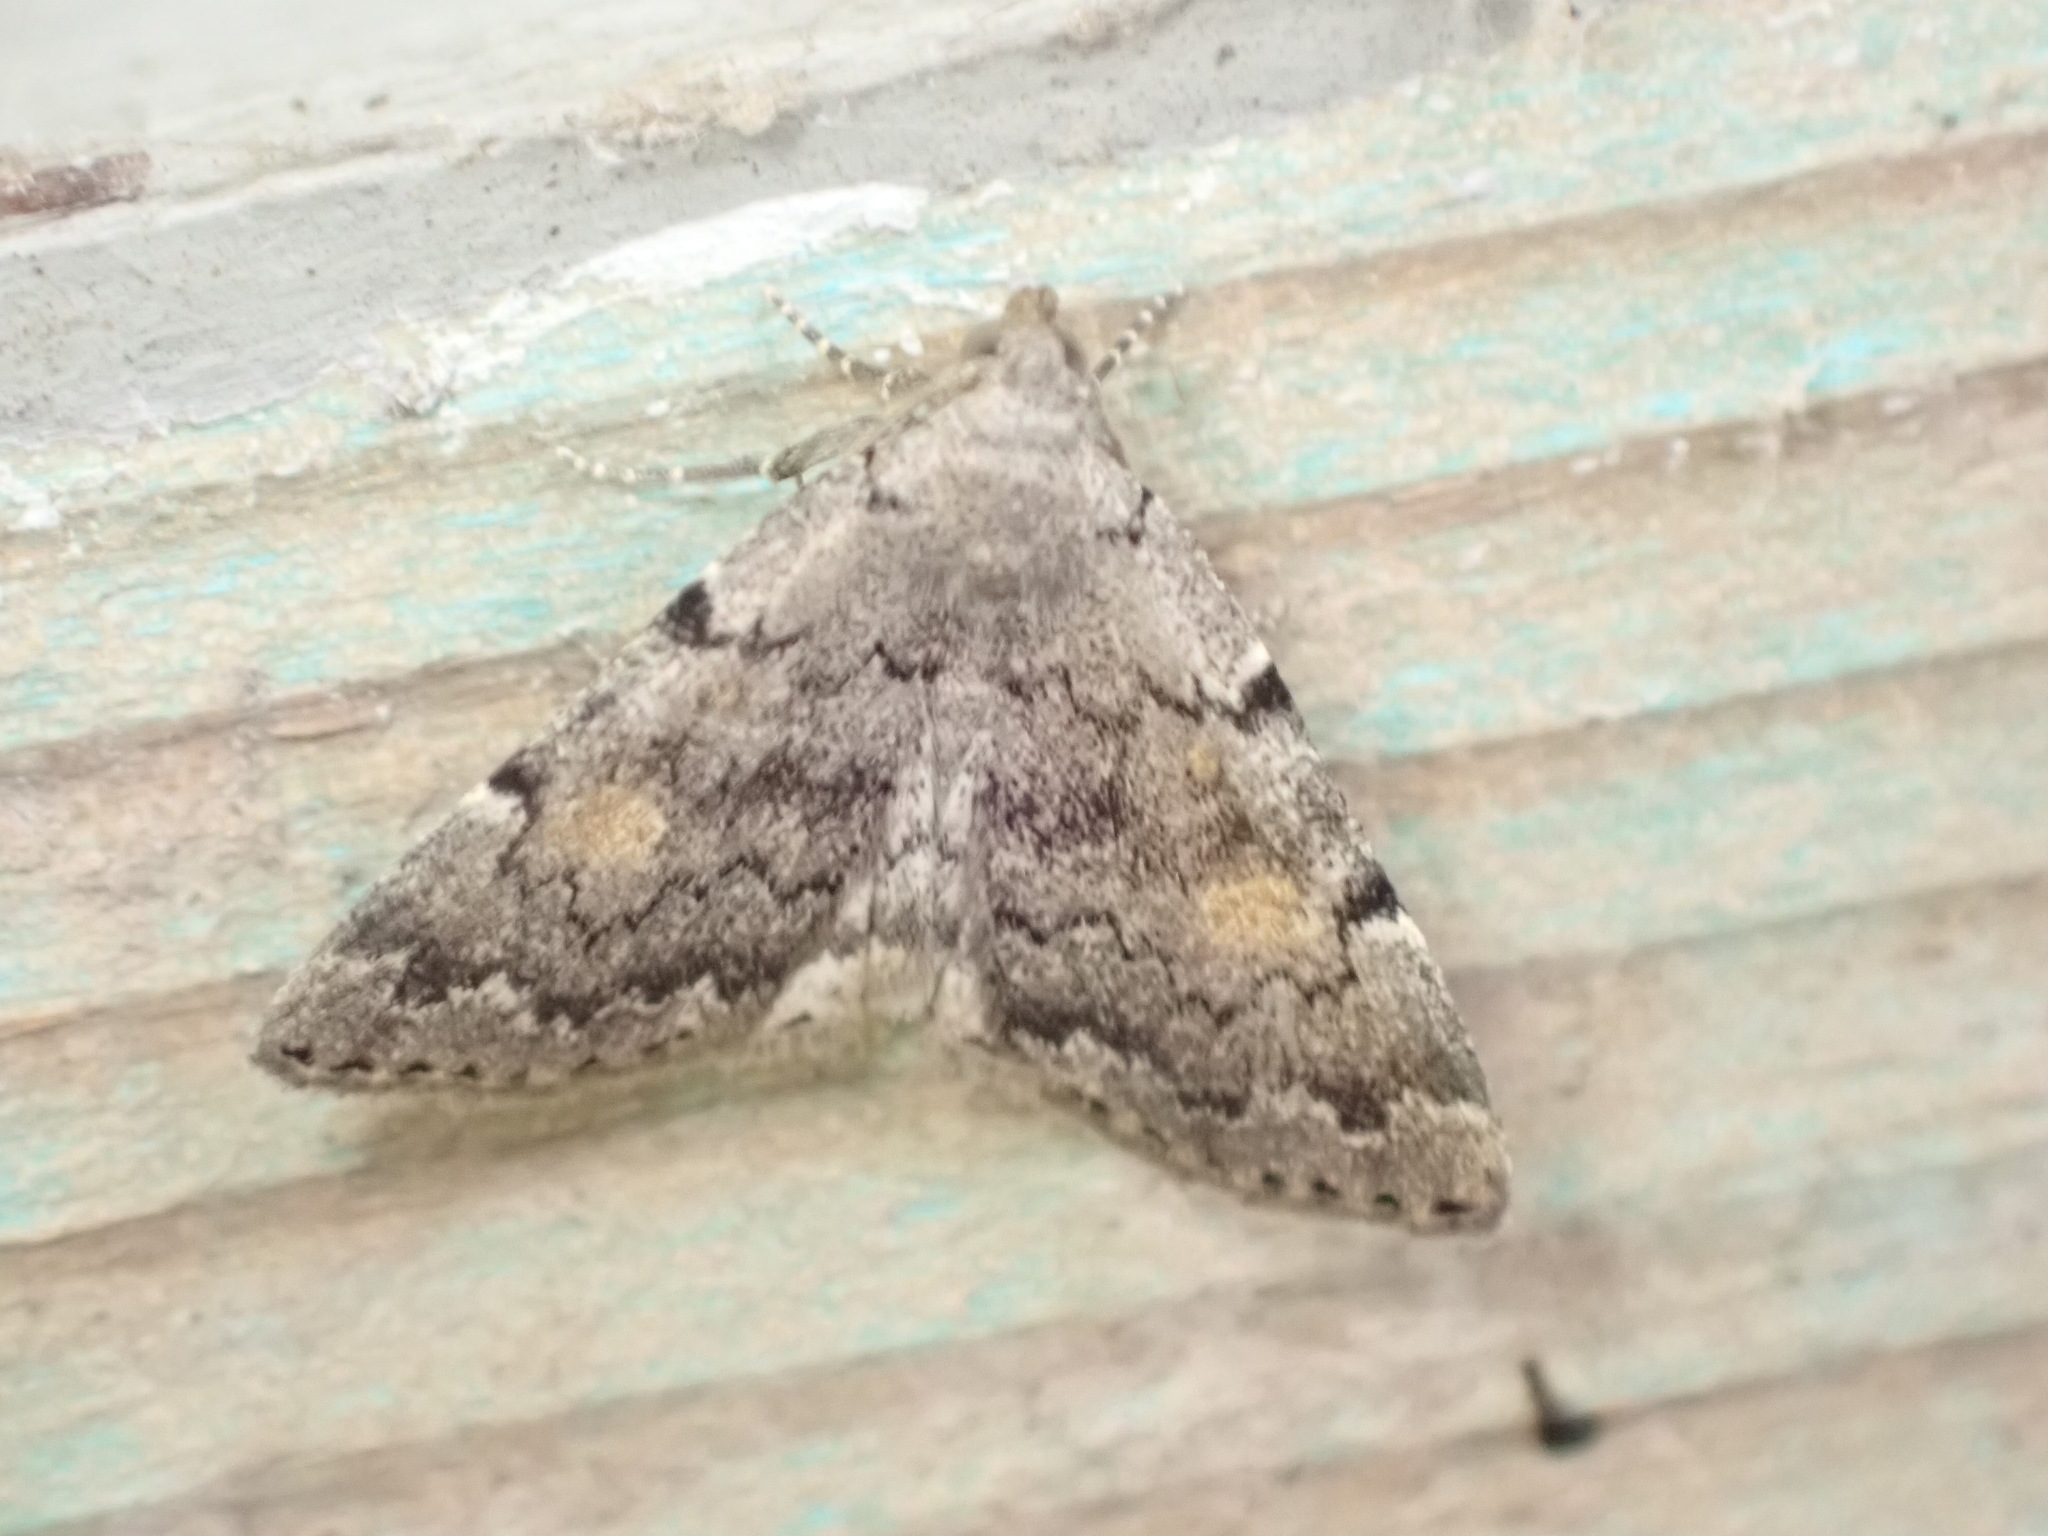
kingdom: Animalia
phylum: Arthropoda
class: Insecta
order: Lepidoptera
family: Erebidae
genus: Idia
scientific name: Idia aemula
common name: Common idia moth
